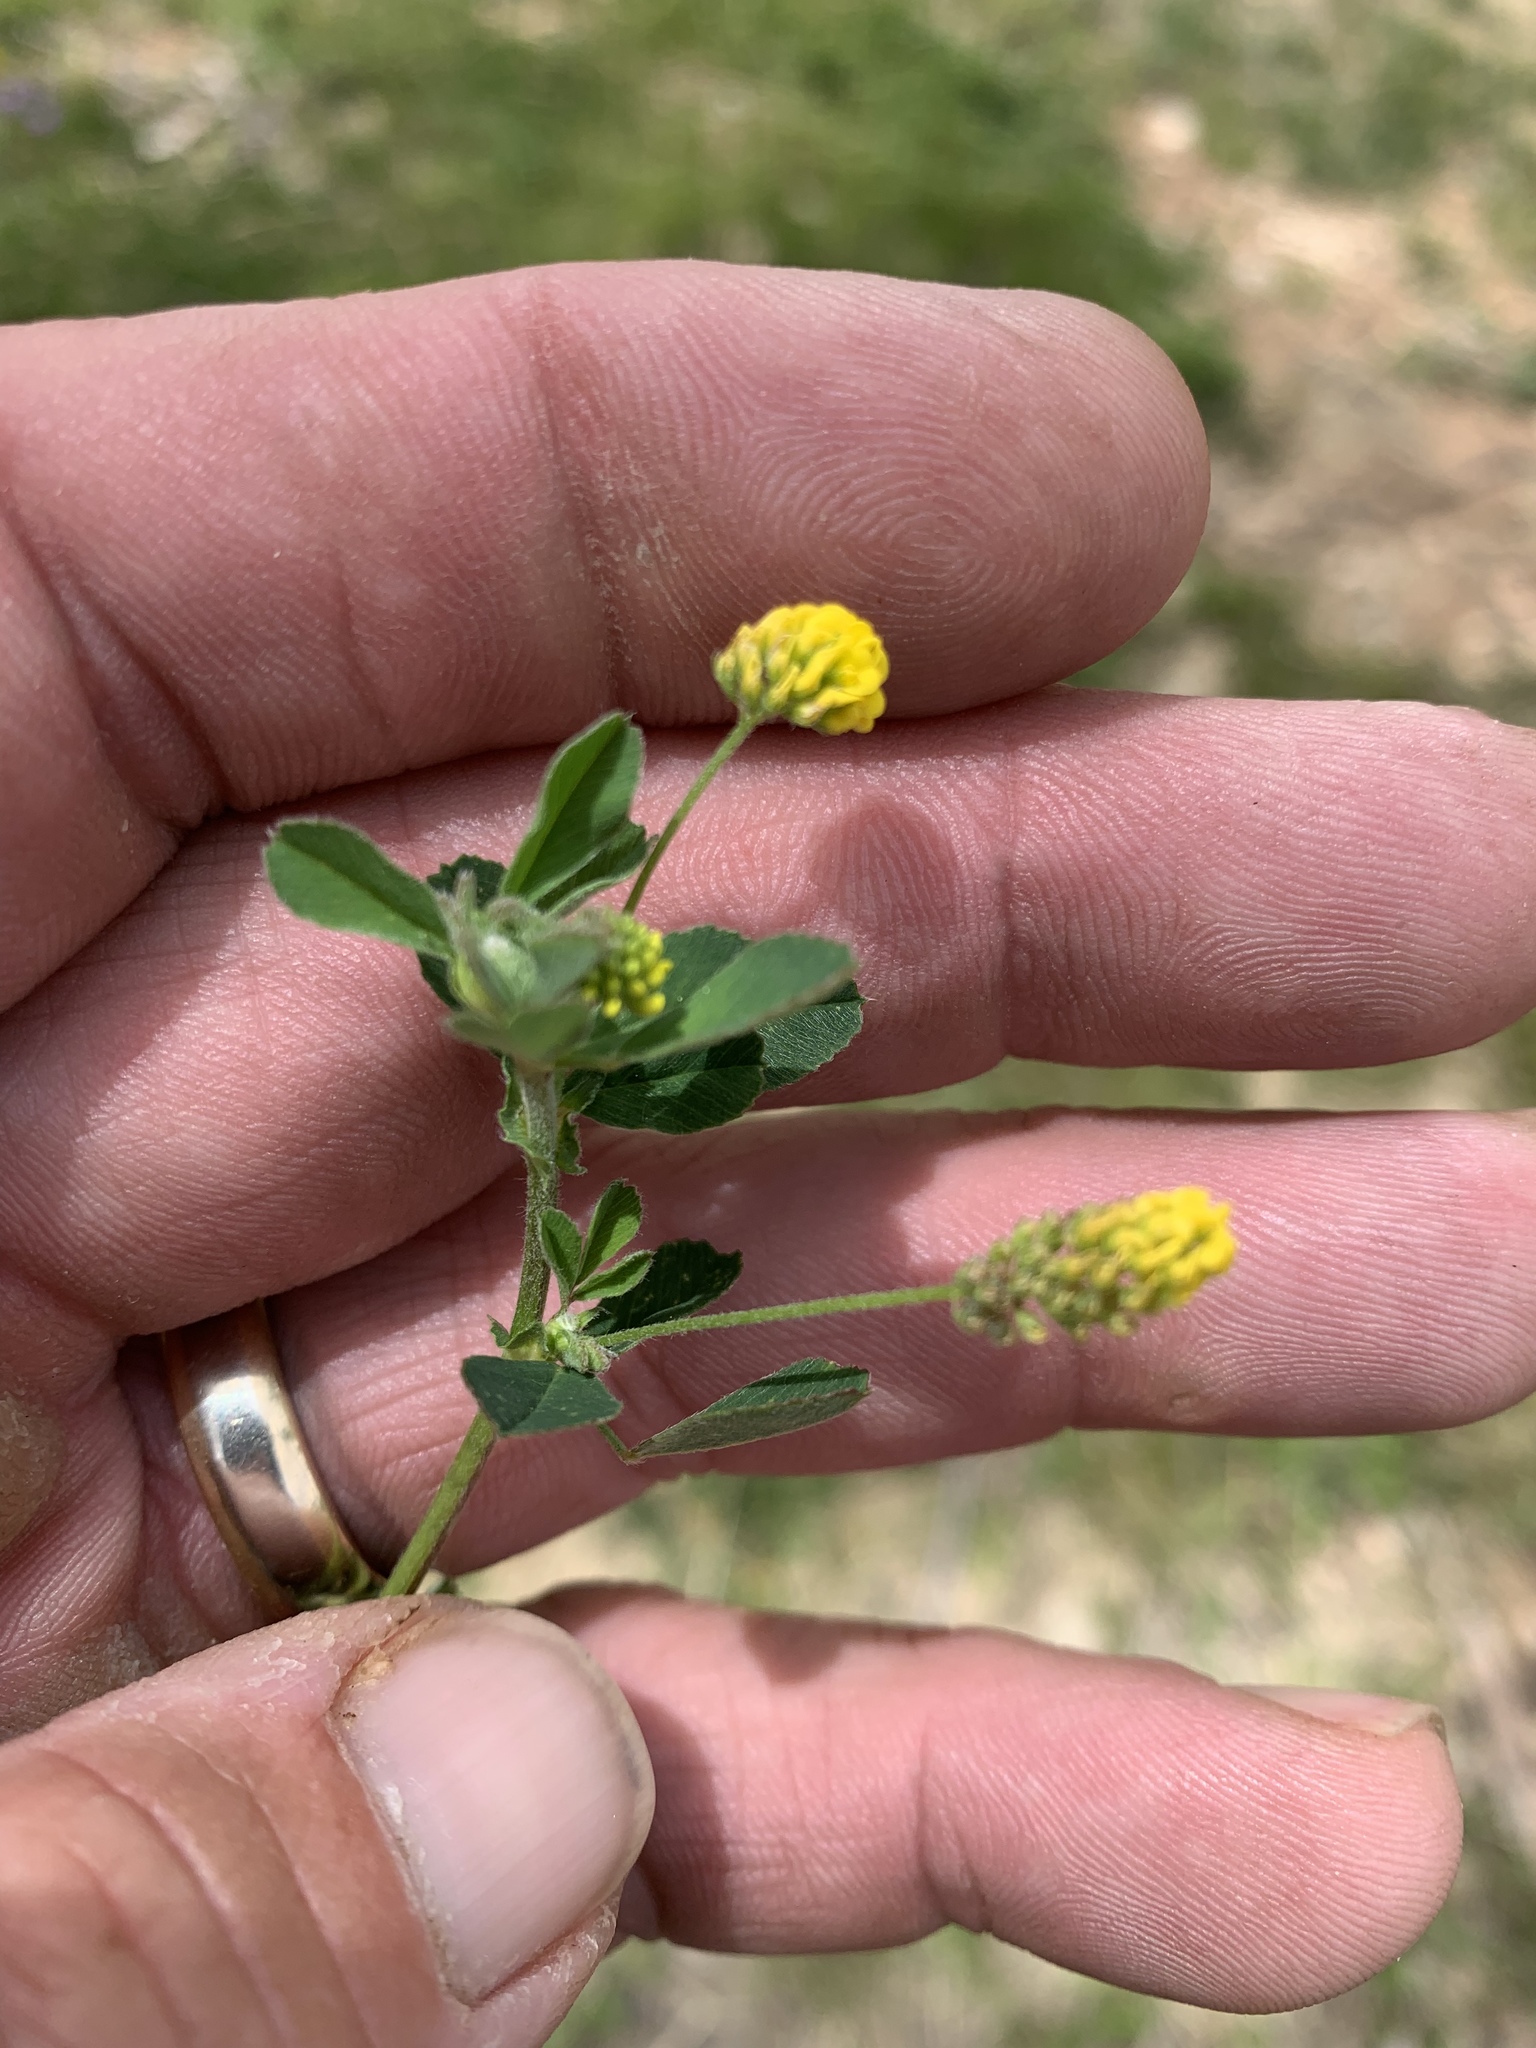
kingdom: Plantae
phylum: Tracheophyta
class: Magnoliopsida
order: Fabales
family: Fabaceae
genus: Medicago
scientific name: Medicago lupulina
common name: Black medick
